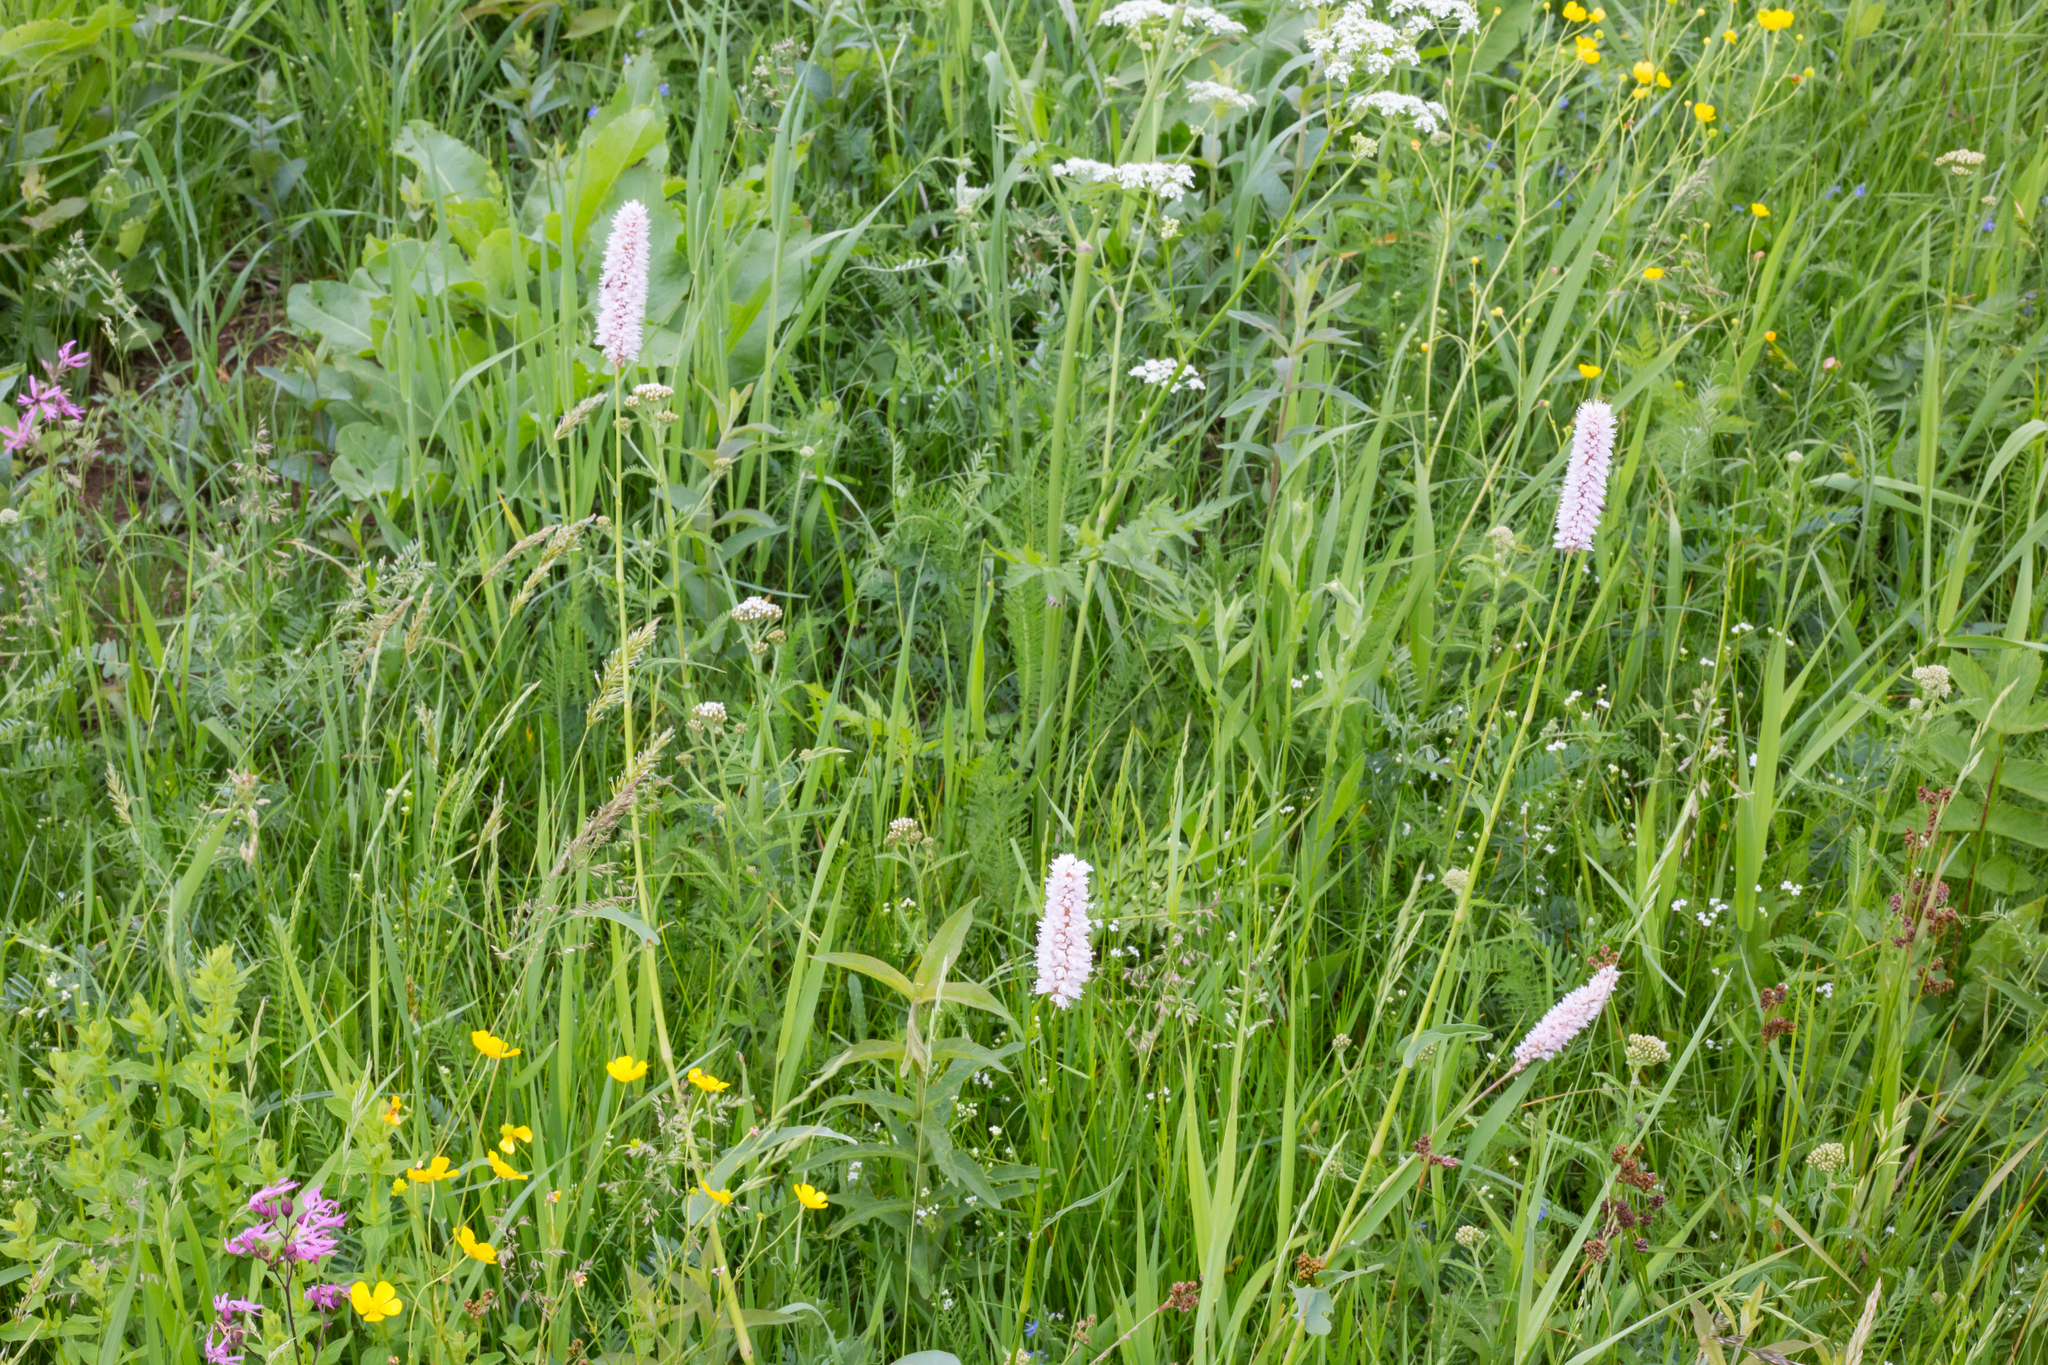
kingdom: Plantae
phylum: Tracheophyta
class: Magnoliopsida
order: Caryophyllales
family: Polygonaceae
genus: Bistorta
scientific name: Bistorta officinalis
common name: Common bistort
